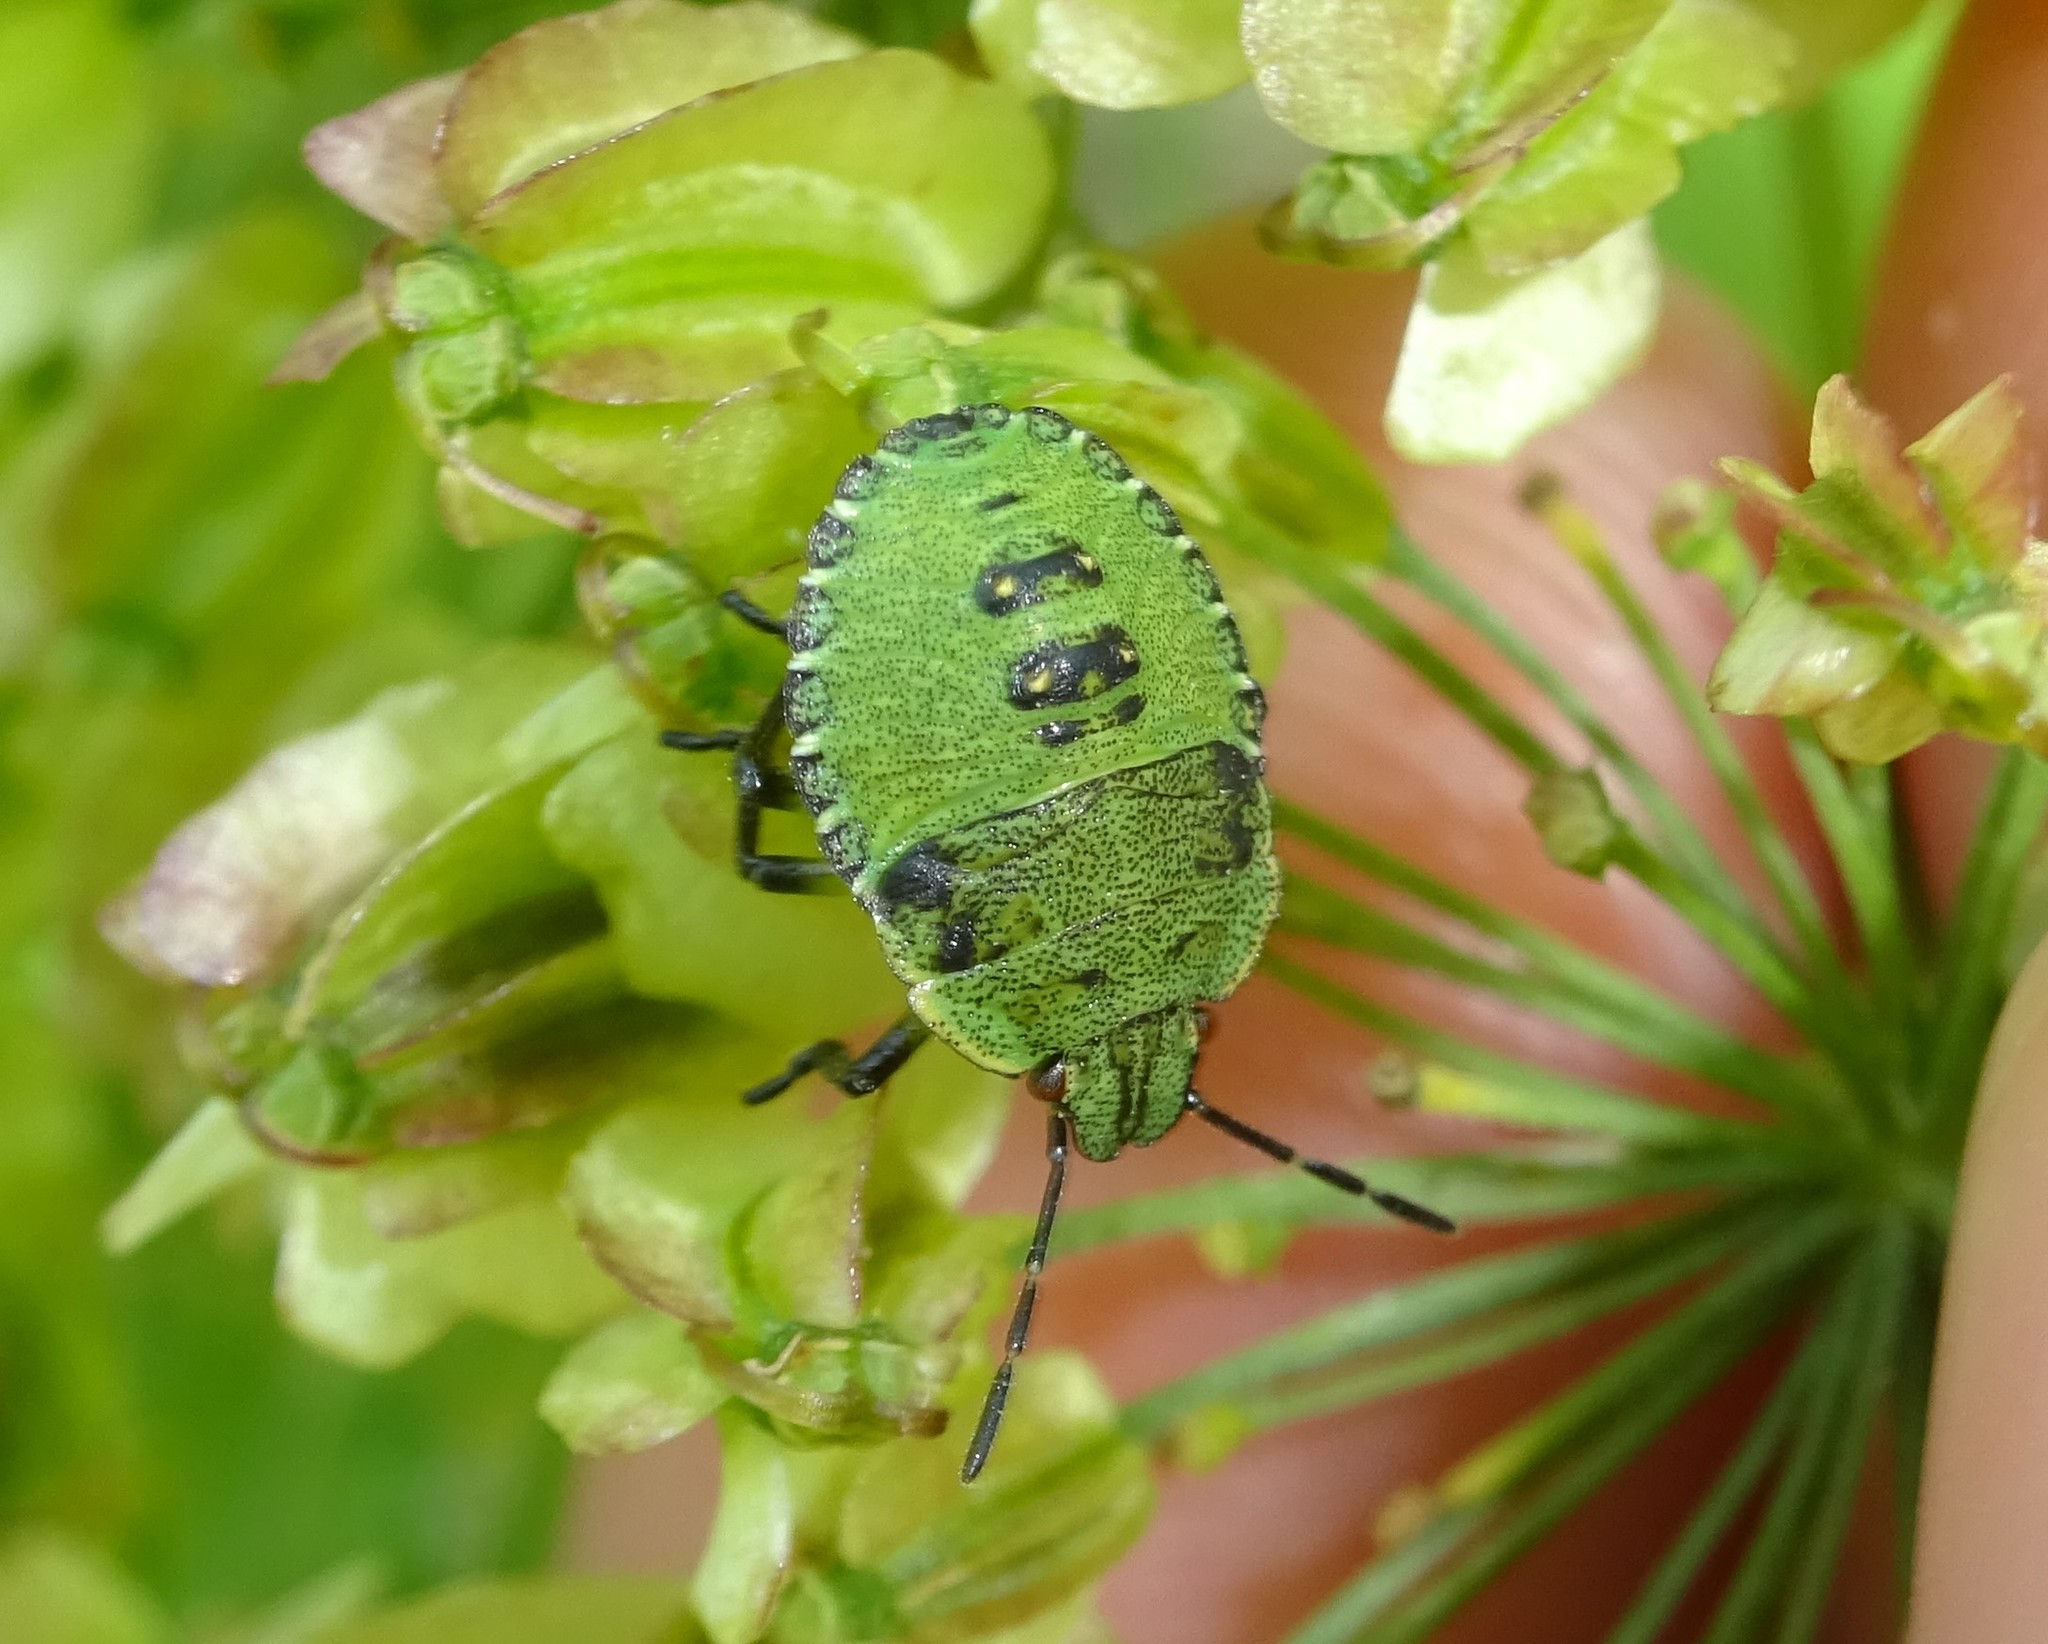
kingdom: Animalia
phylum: Arthropoda
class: Insecta
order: Hemiptera
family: Pentatomidae
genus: Palomena
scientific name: Palomena prasina
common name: Green shieldbug
